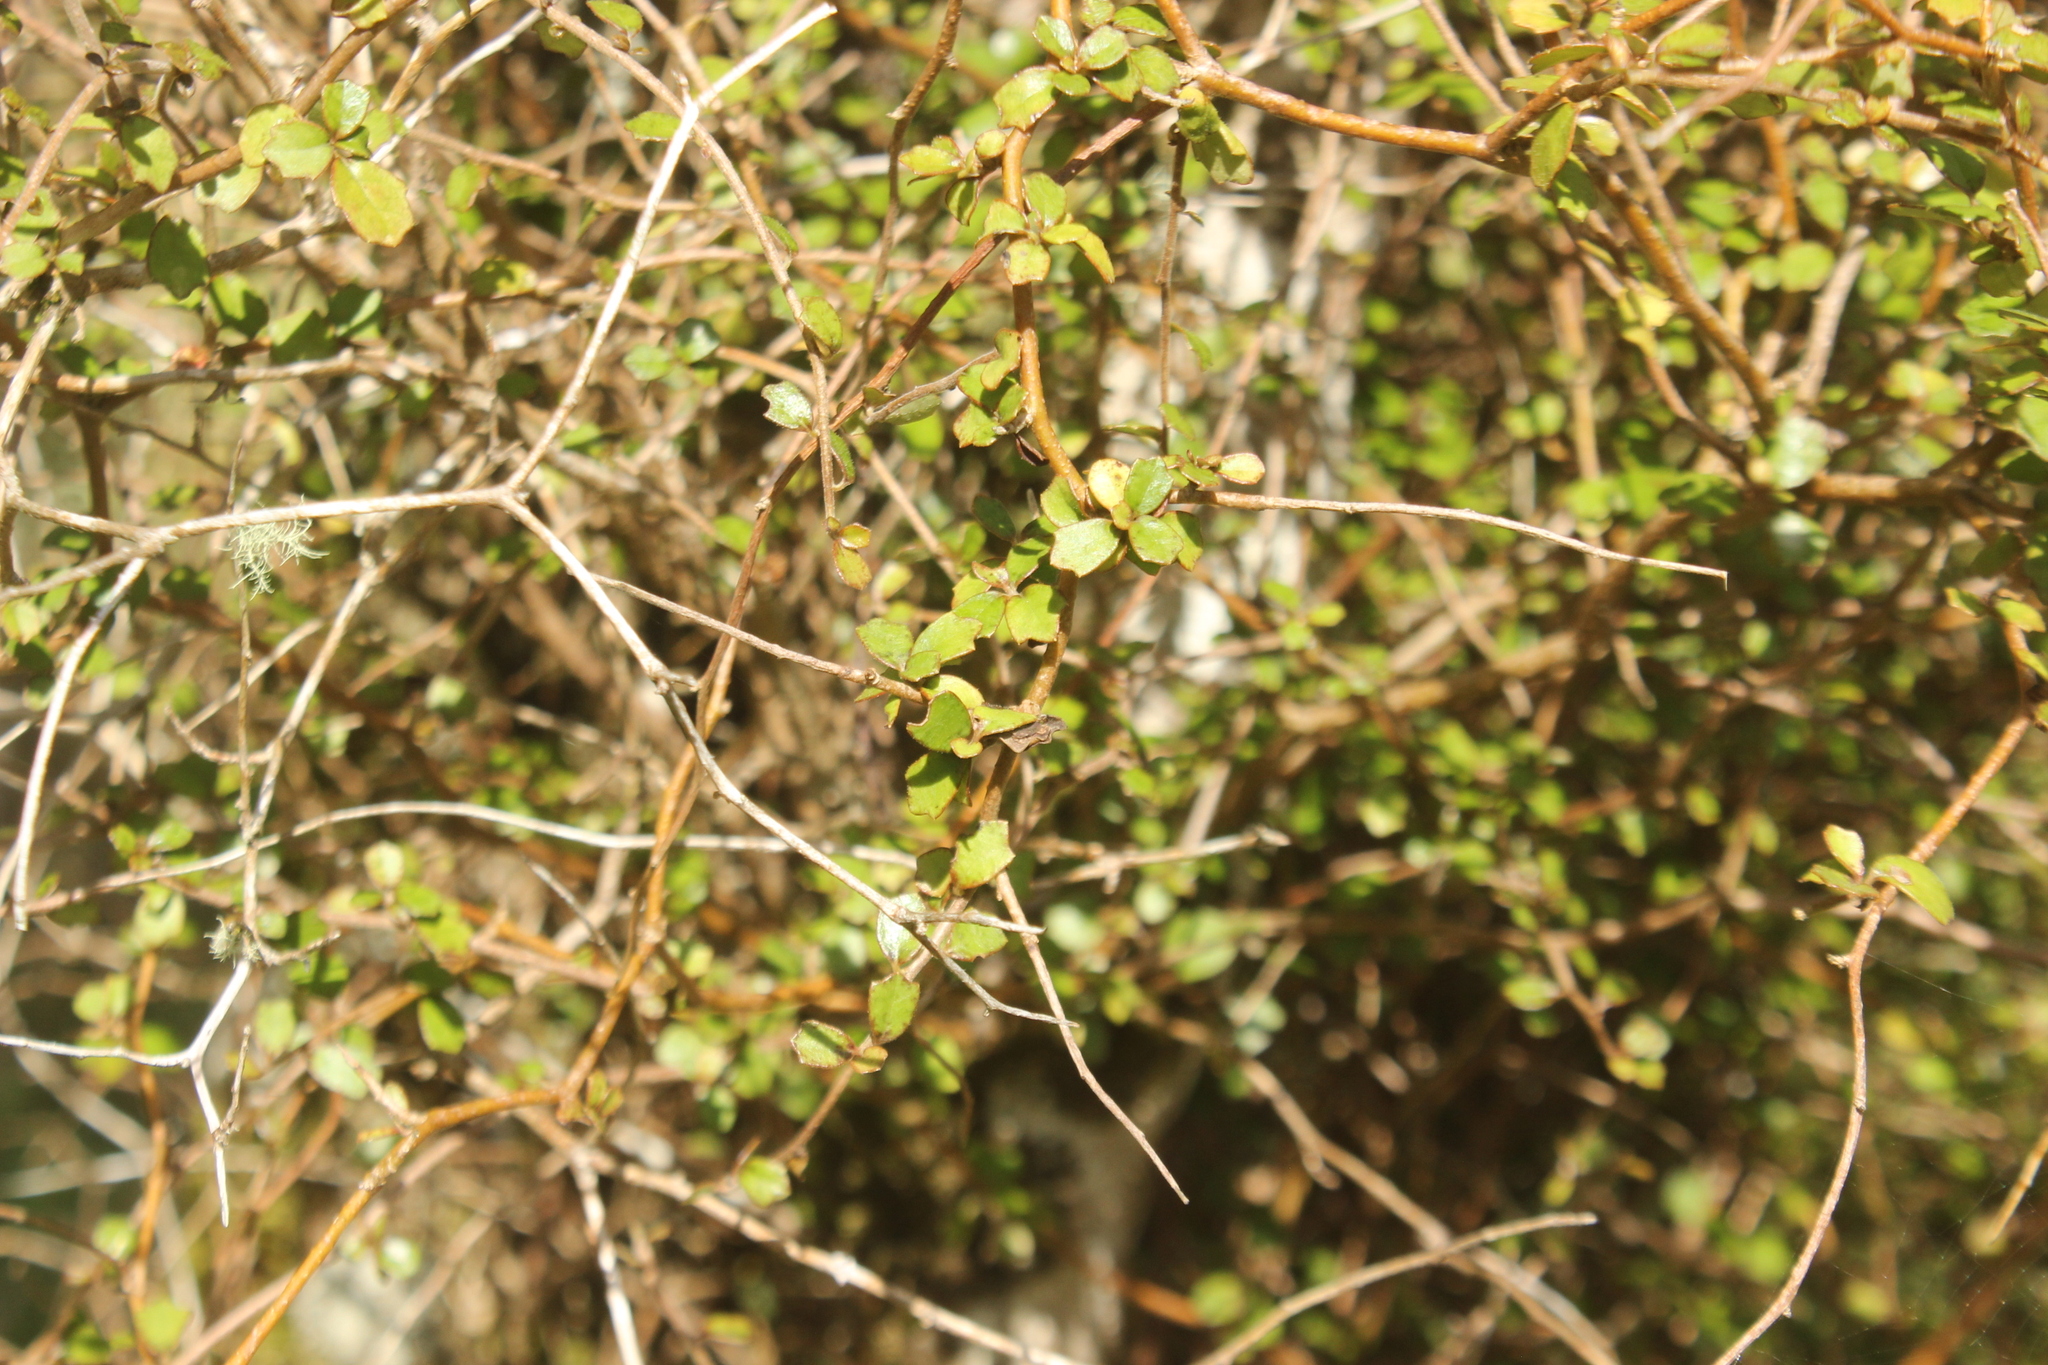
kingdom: Plantae
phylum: Tracheophyta
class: Magnoliopsida
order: Apiales
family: Pennantiaceae
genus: Pennantia
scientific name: Pennantia corymbosa
